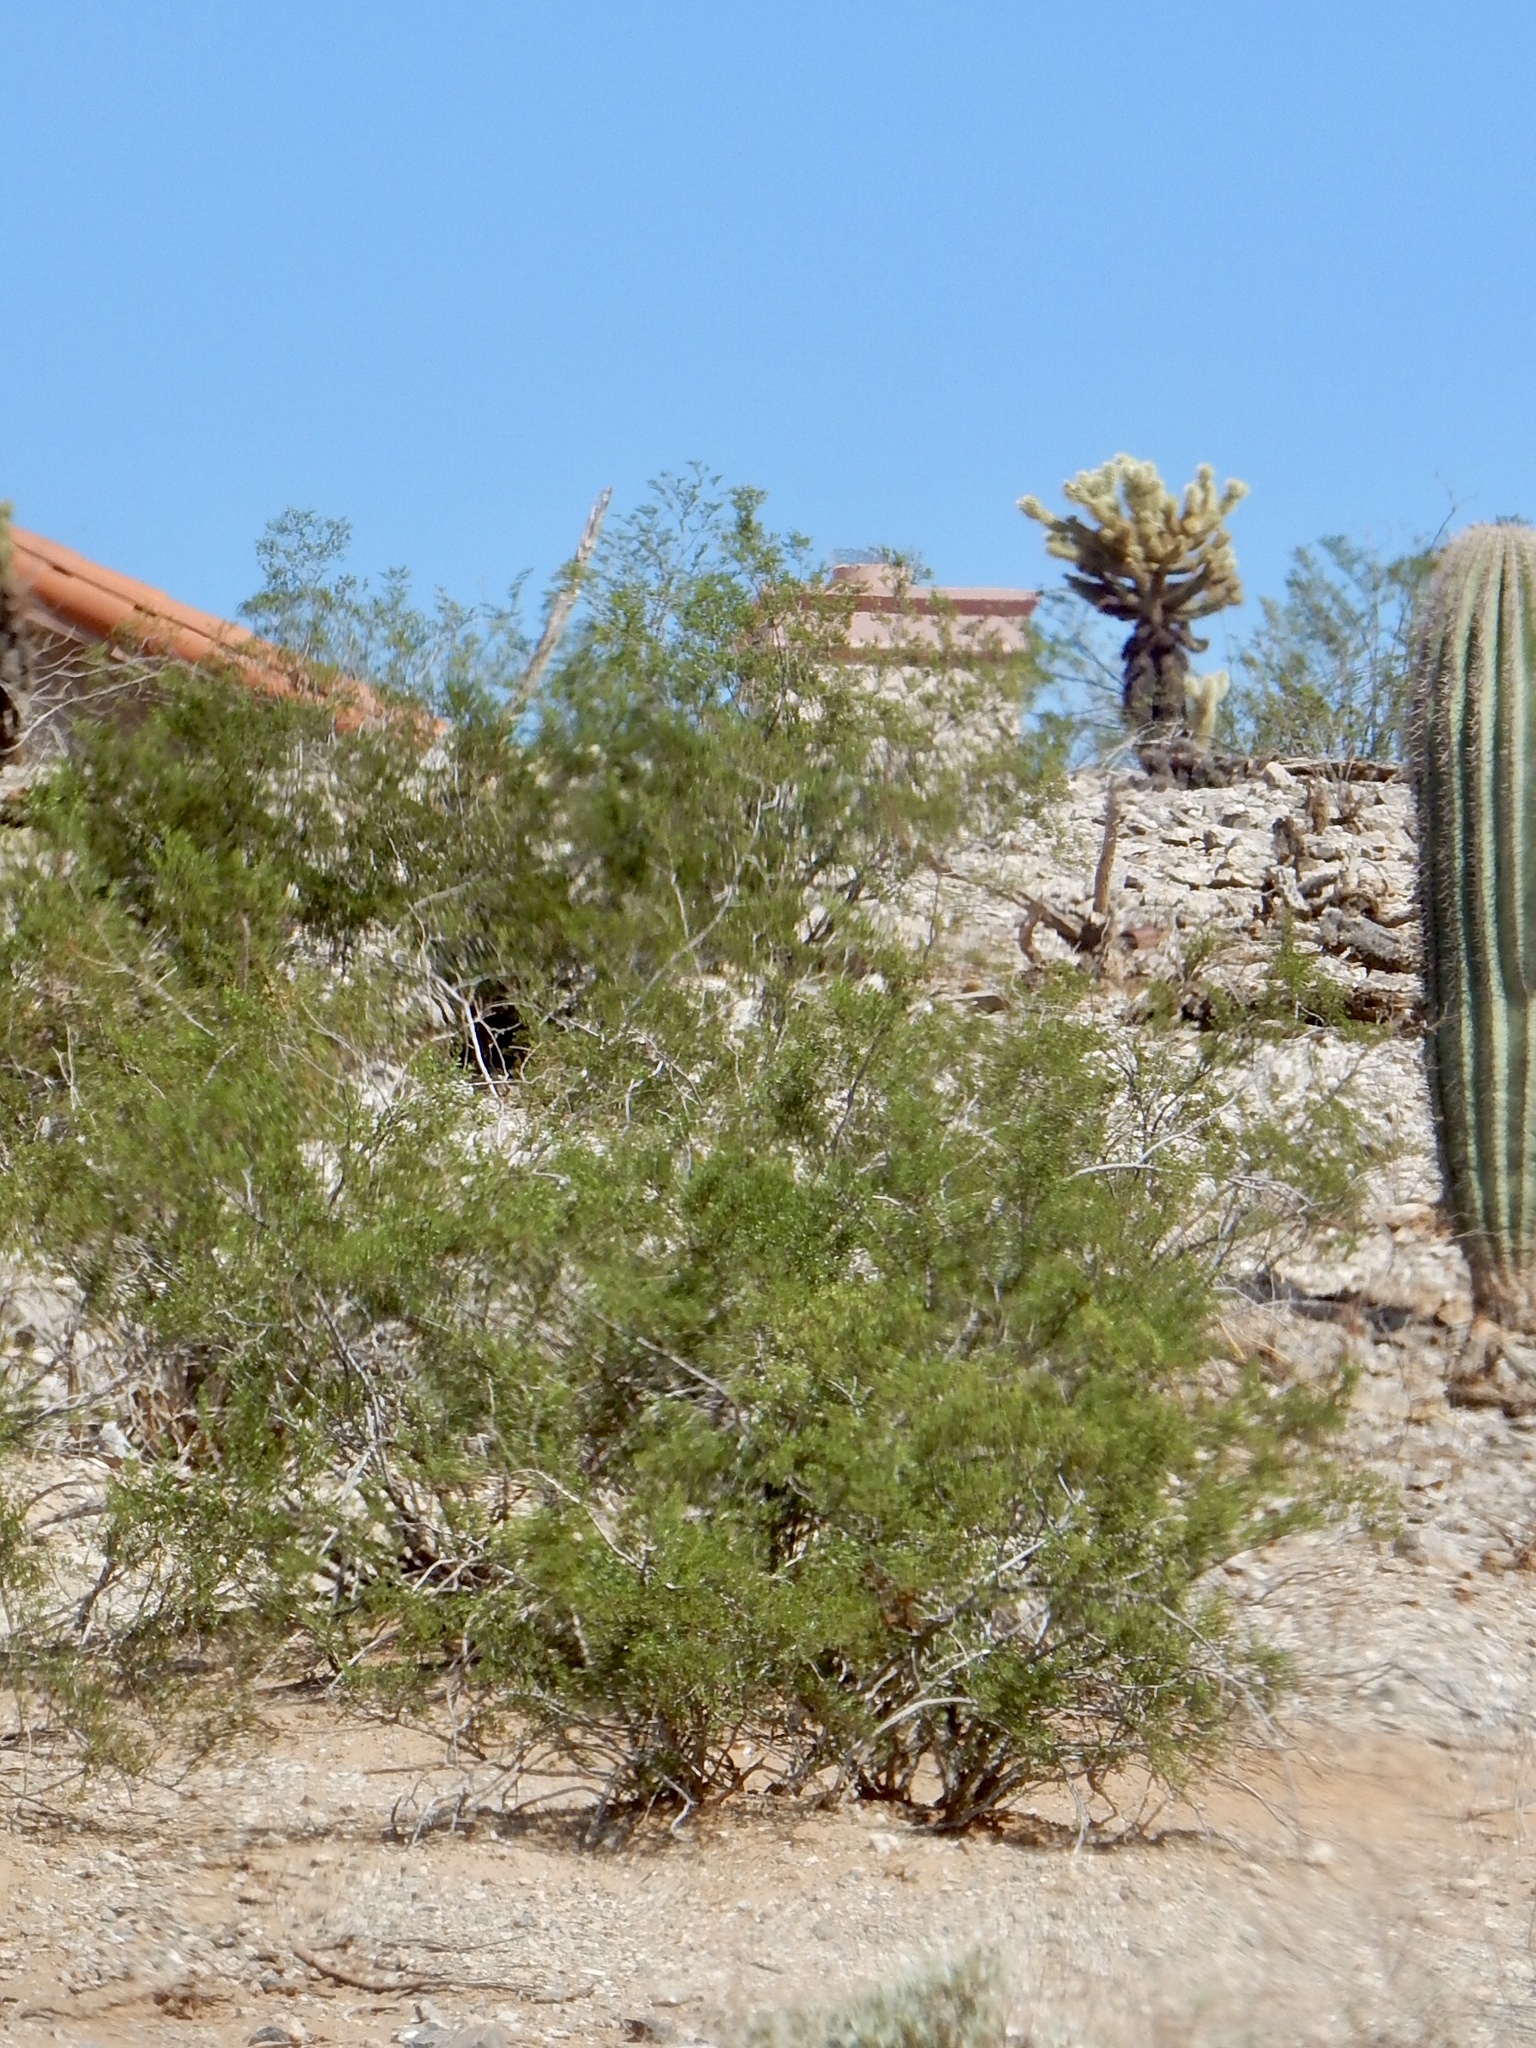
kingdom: Plantae
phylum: Tracheophyta
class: Magnoliopsida
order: Zygophyllales
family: Zygophyllaceae
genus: Larrea
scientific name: Larrea tridentata
